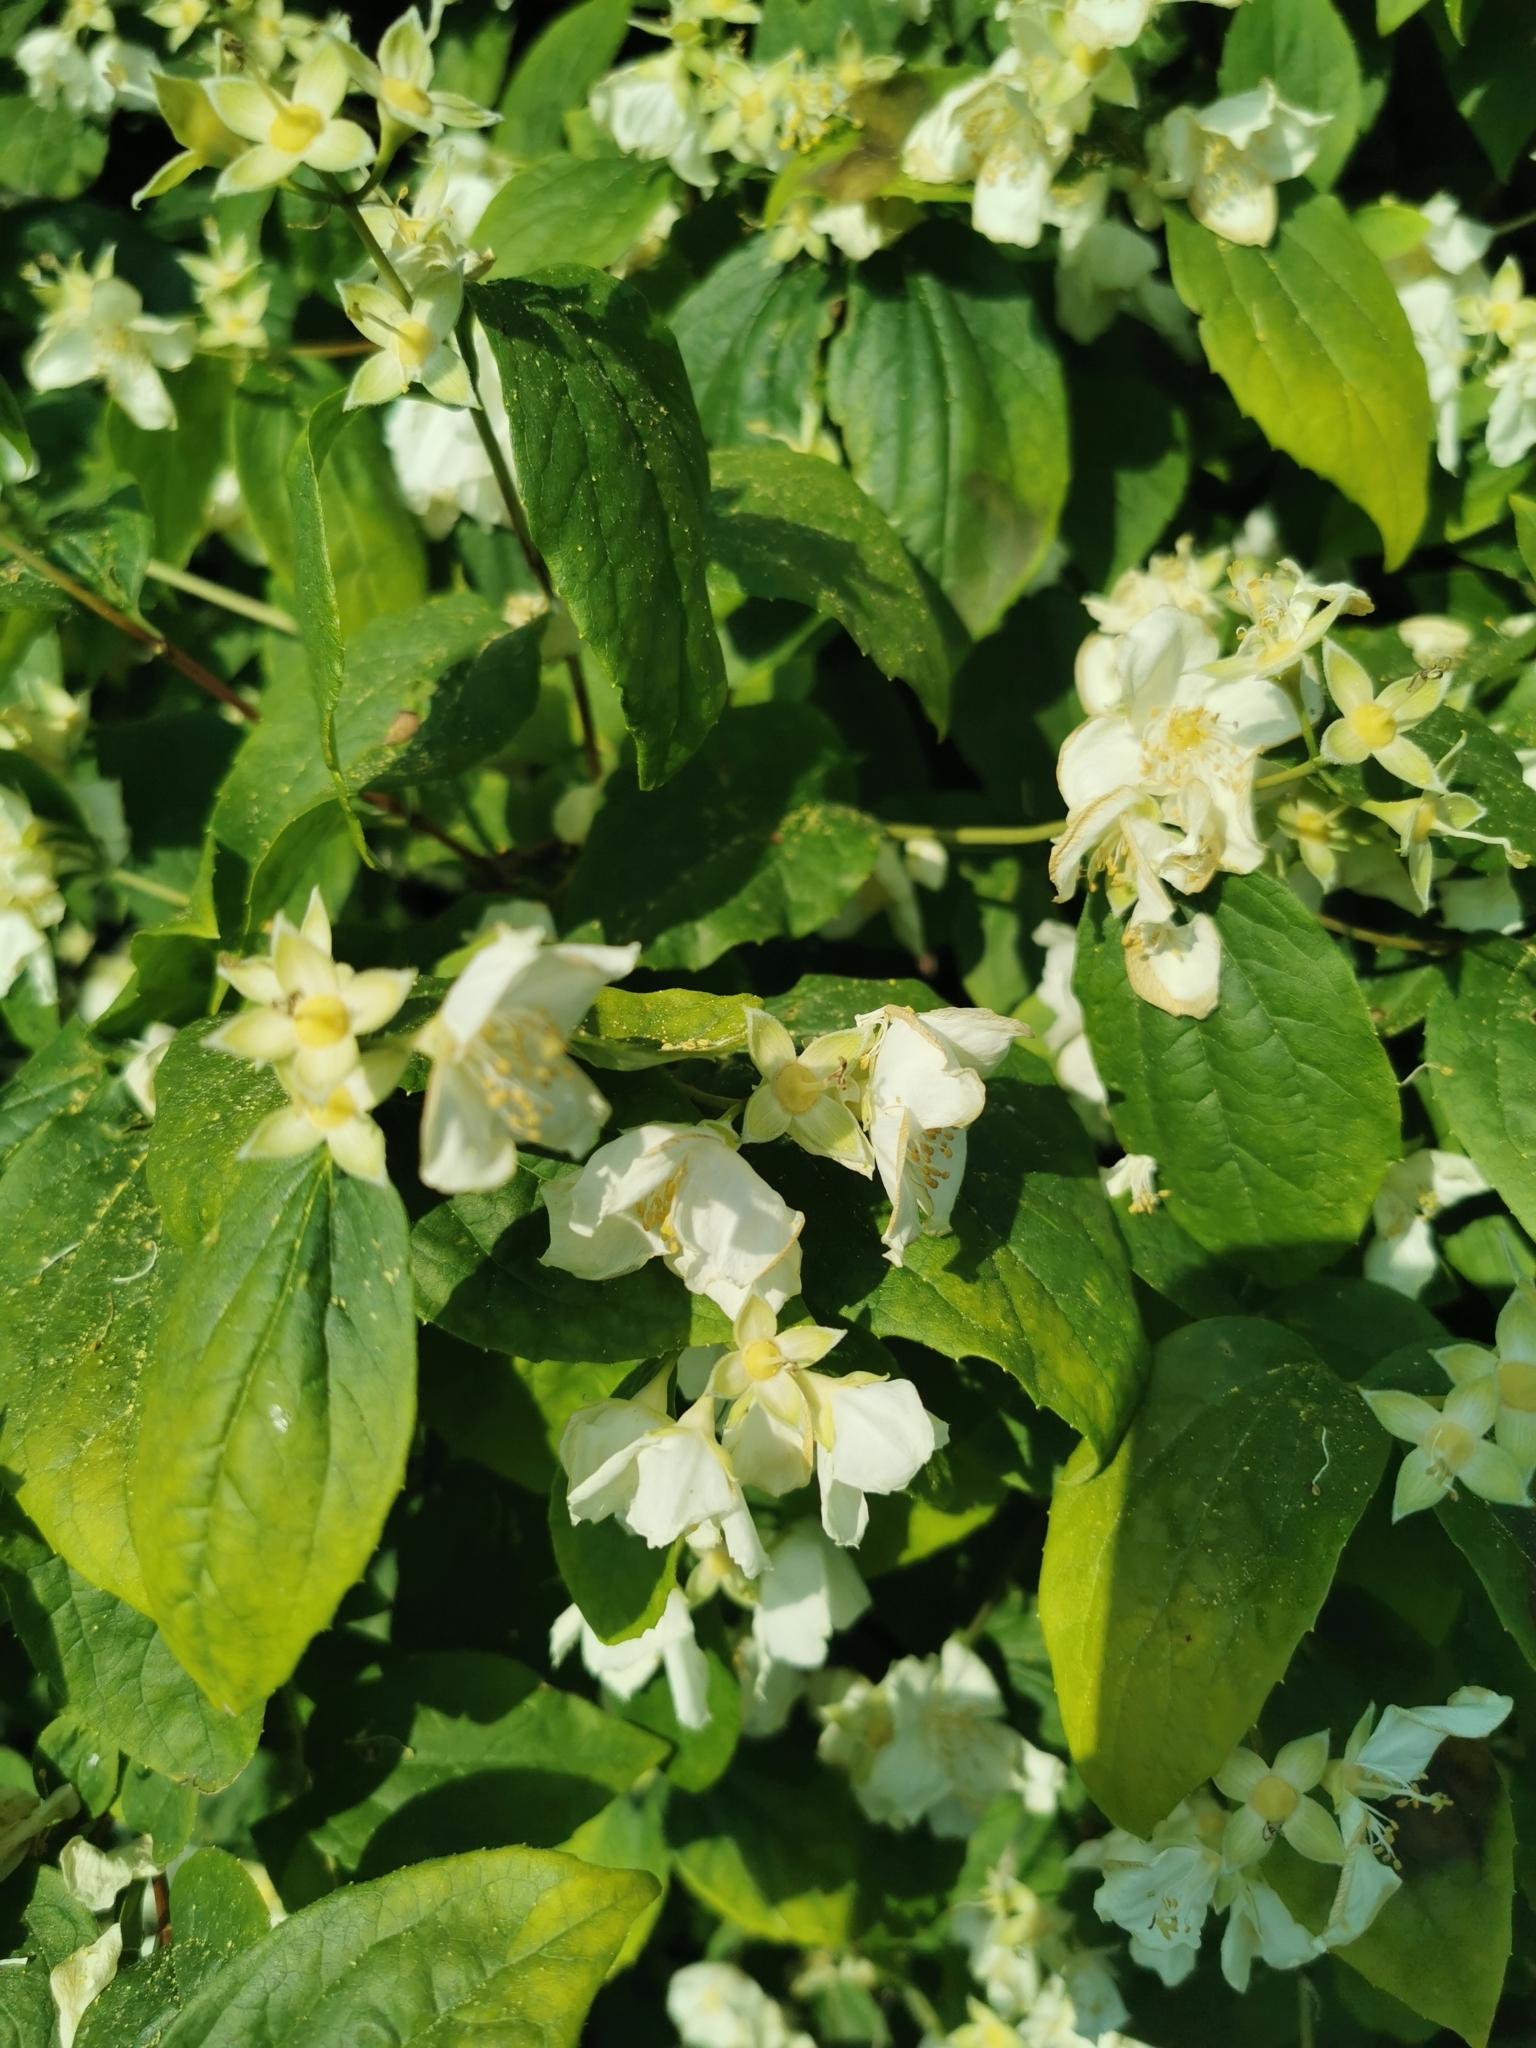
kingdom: Plantae
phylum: Tracheophyta
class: Magnoliopsida
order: Cornales
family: Hydrangeaceae
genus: Philadelphus
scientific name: Philadelphus coronarius
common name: Mock orange
